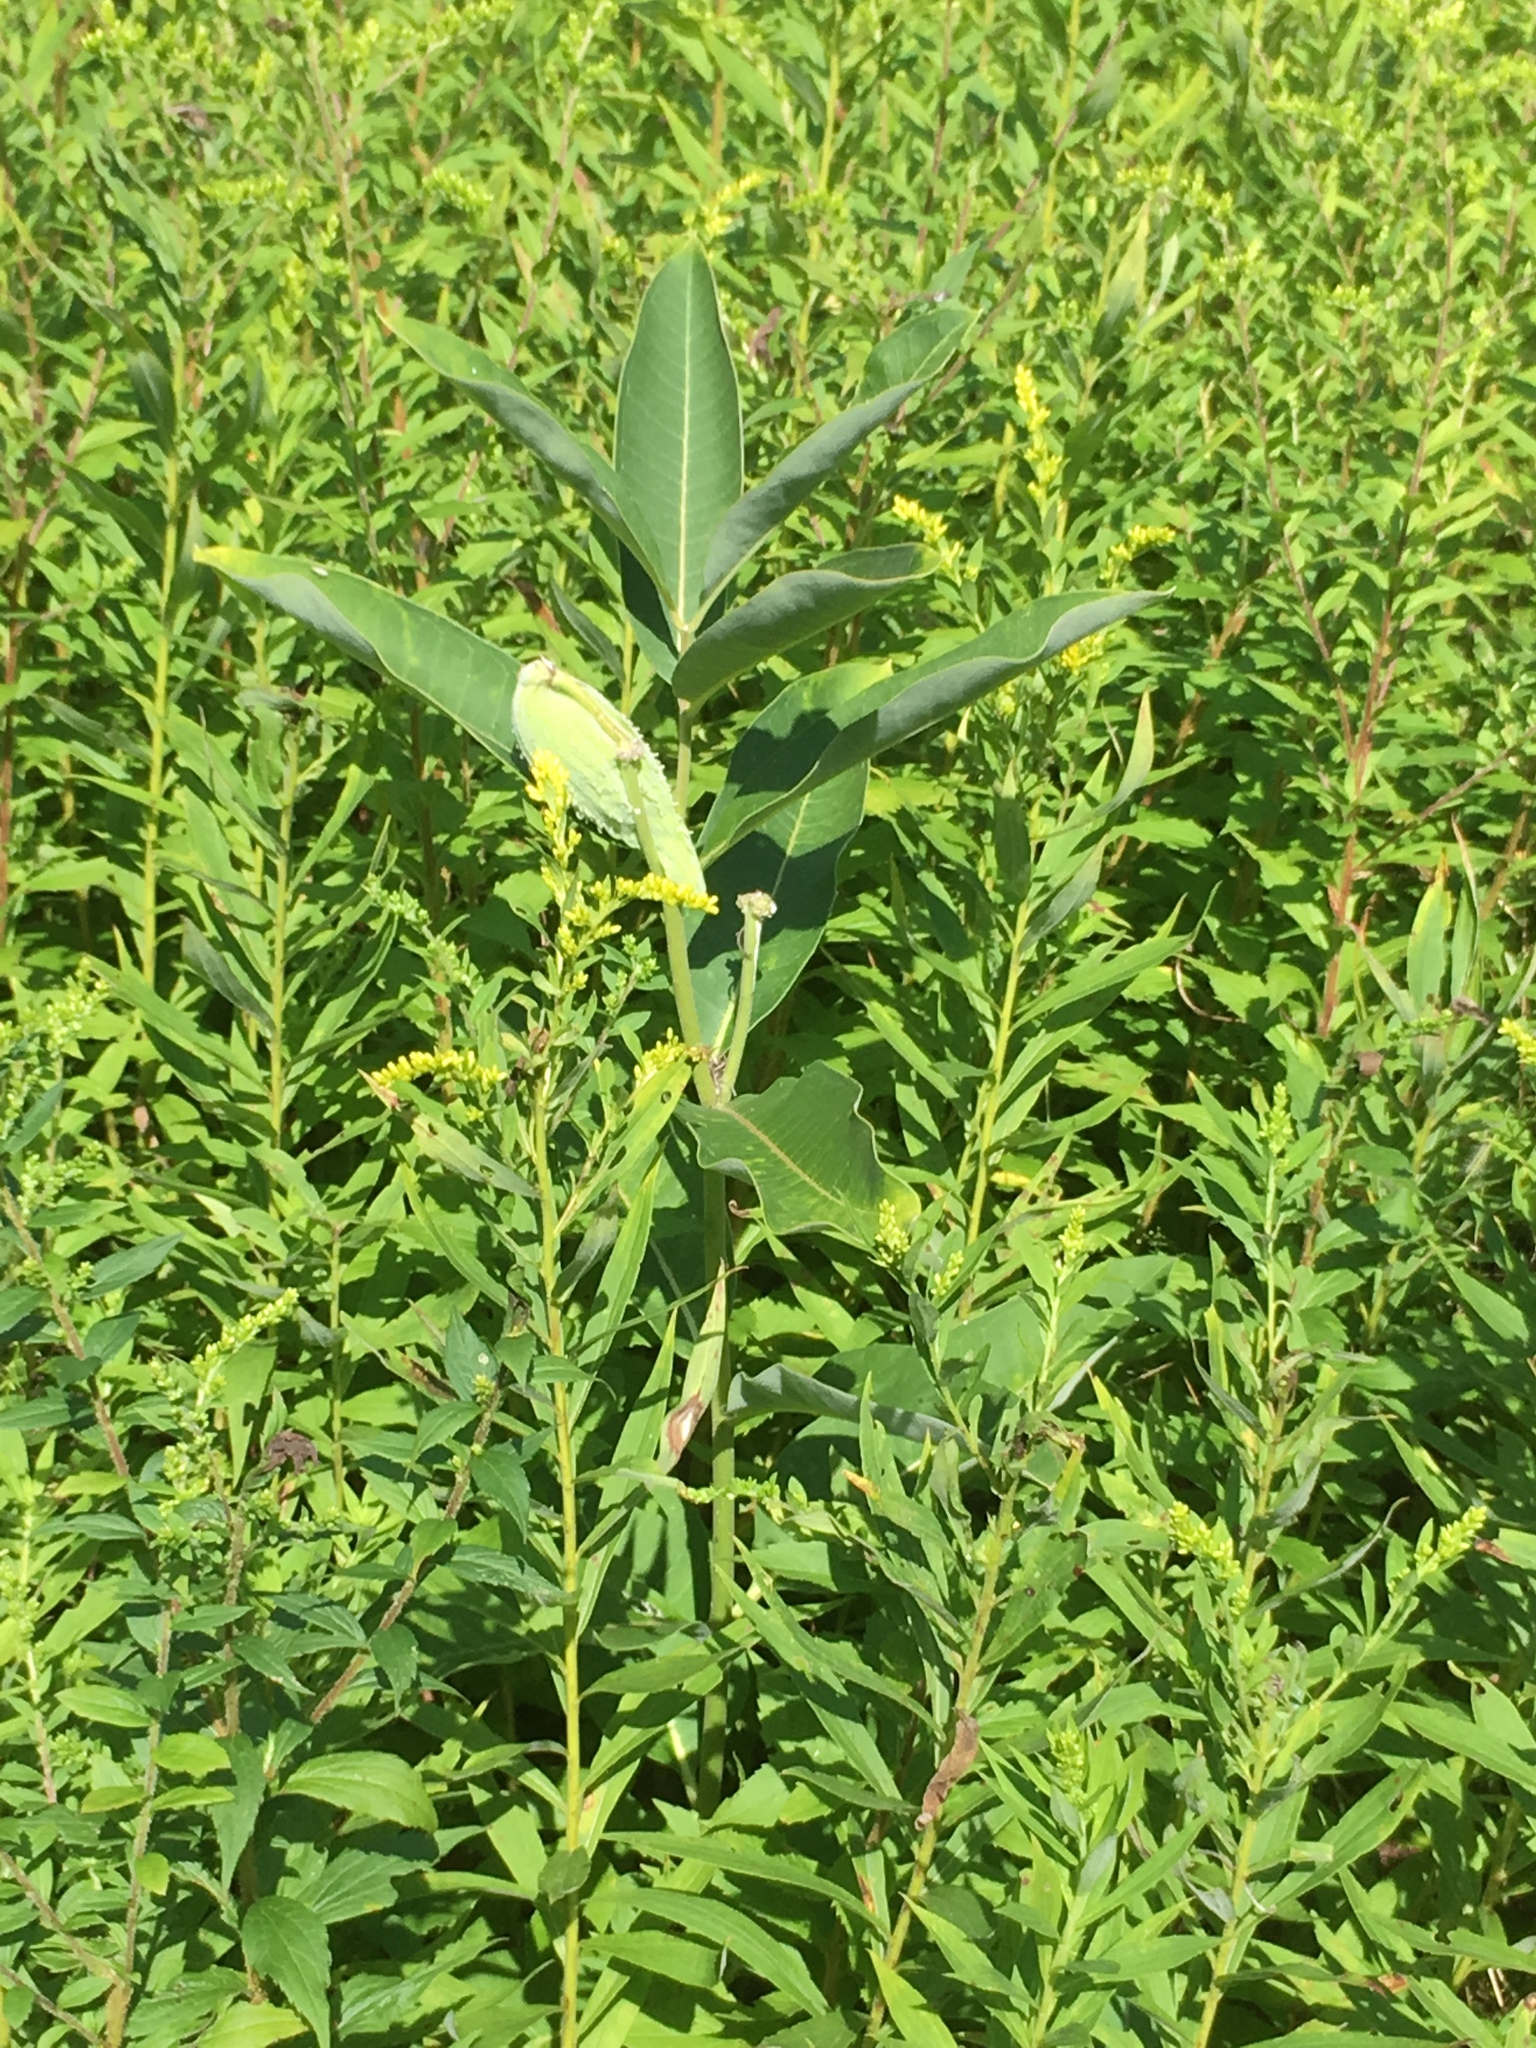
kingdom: Plantae
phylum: Tracheophyta
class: Magnoliopsida
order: Gentianales
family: Apocynaceae
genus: Asclepias
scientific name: Asclepias syriaca
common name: Common milkweed
